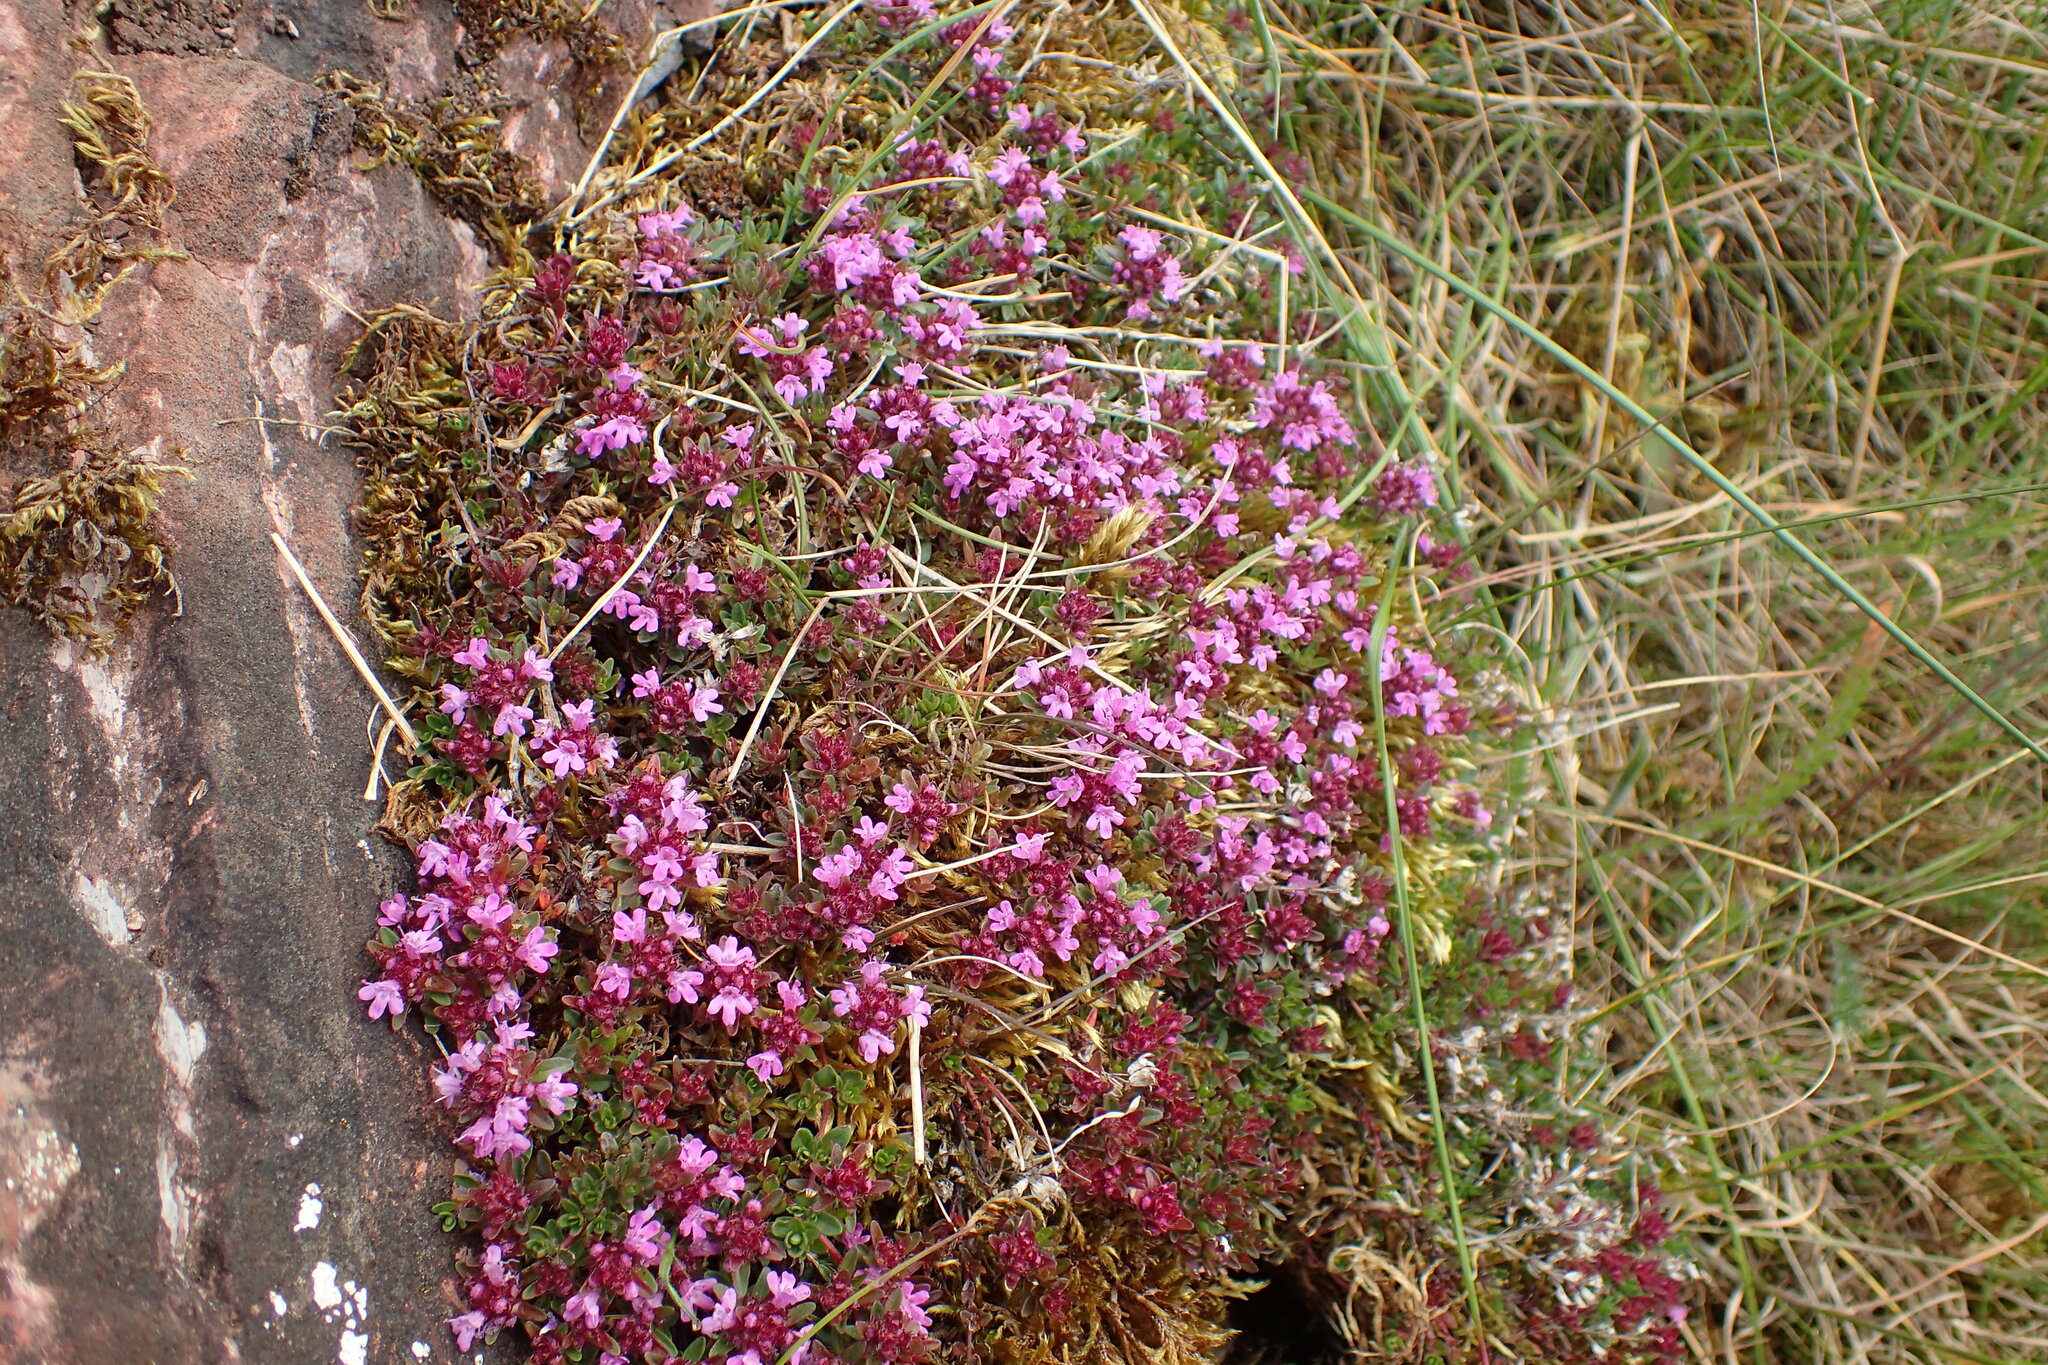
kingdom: Plantae
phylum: Tracheophyta
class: Magnoliopsida
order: Lamiales
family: Lamiaceae
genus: Thymus
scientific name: Thymus praecox
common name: Wild thyme
